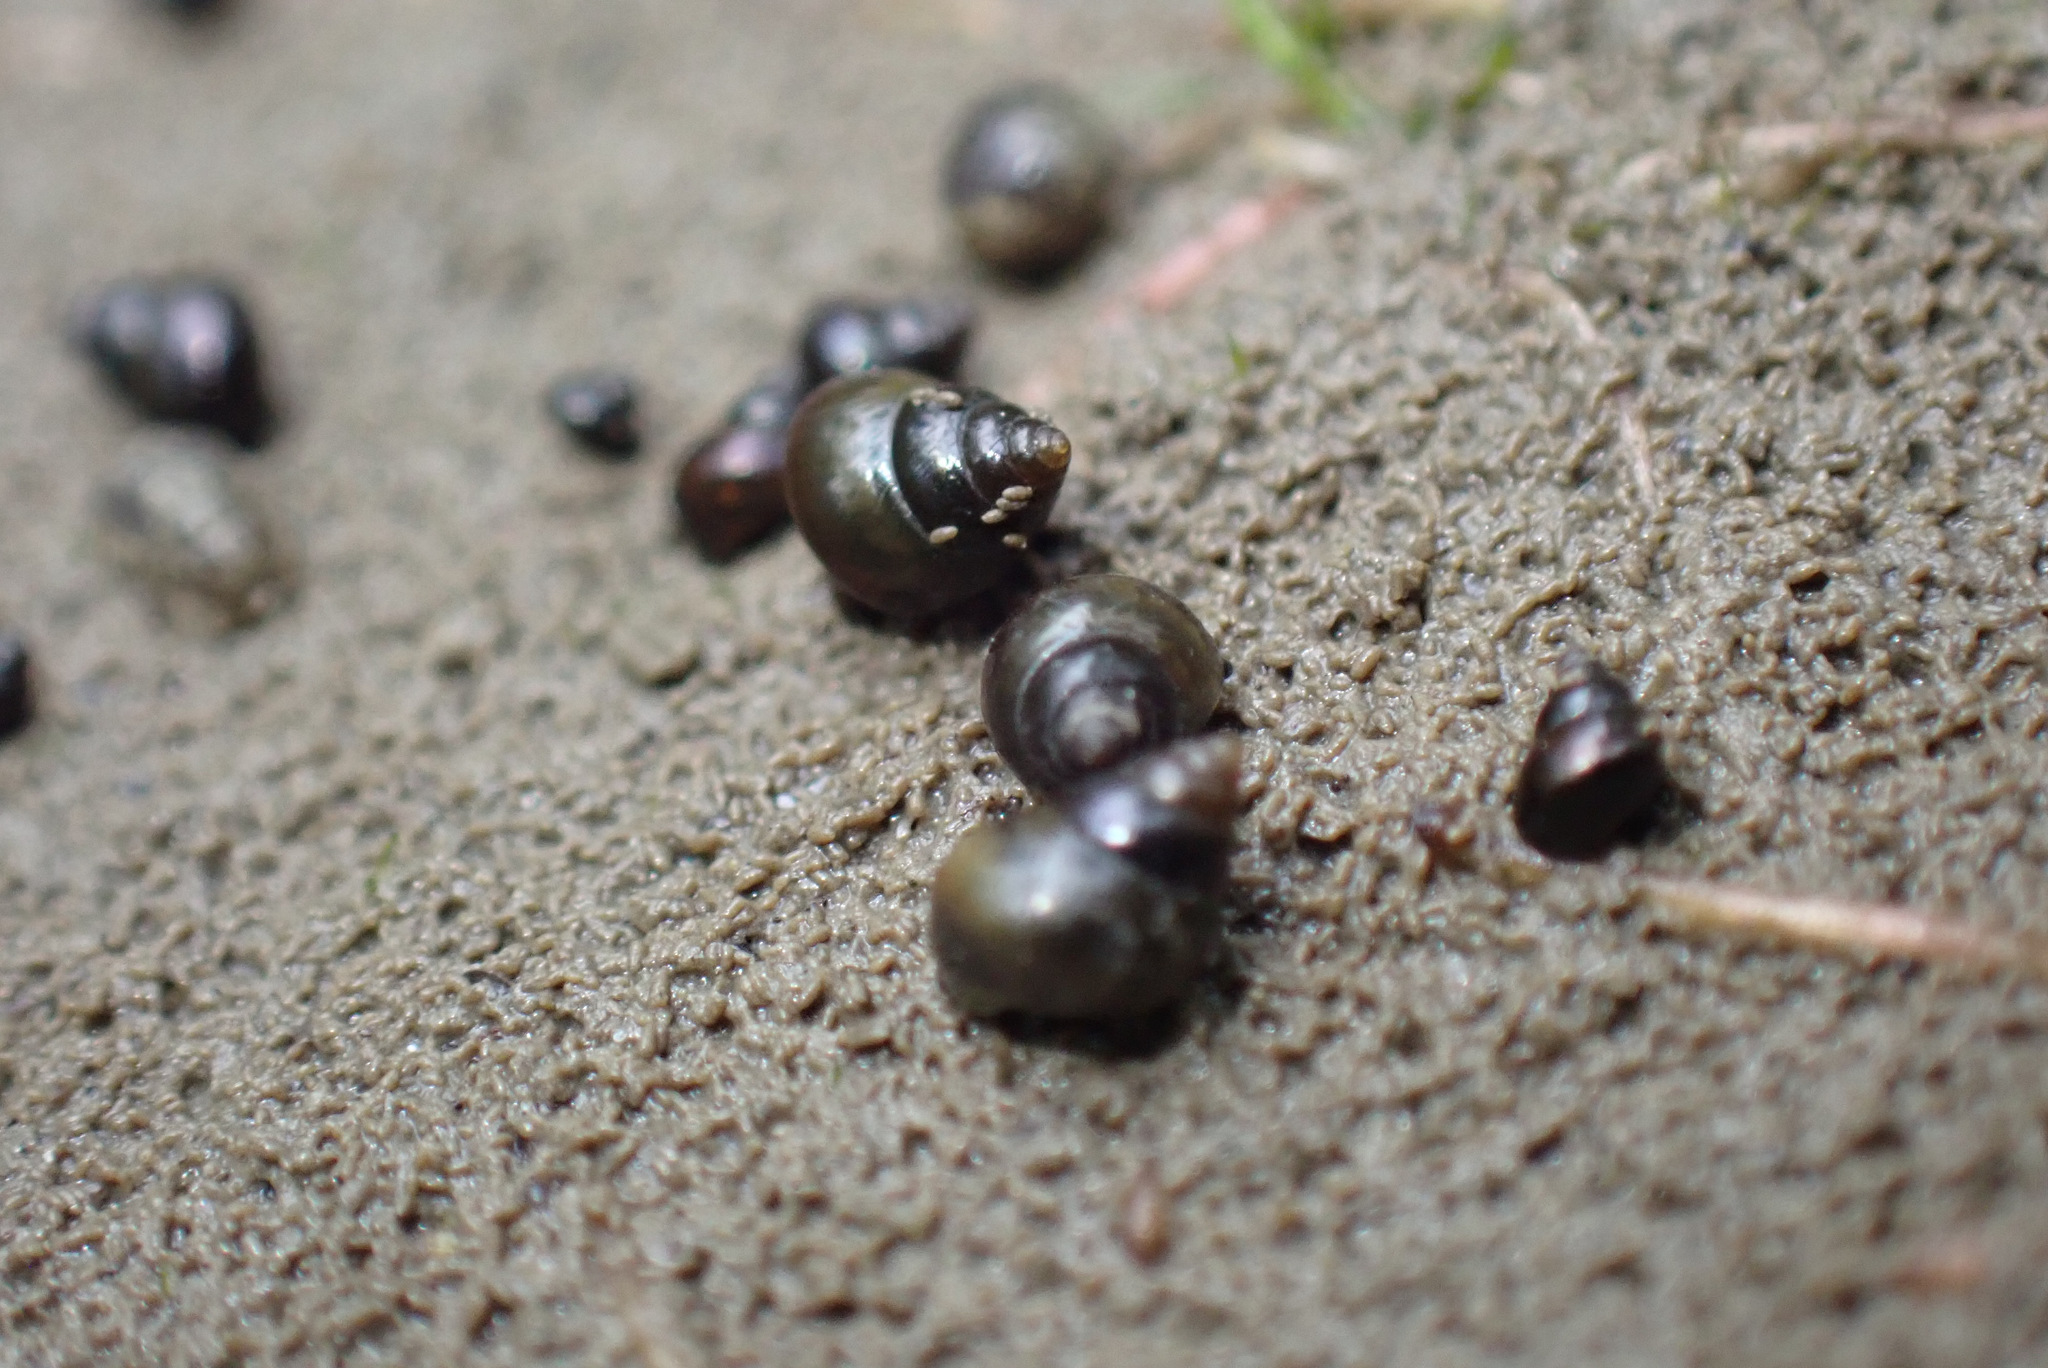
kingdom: Animalia
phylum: Mollusca
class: Gastropoda
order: Littorinimorpha
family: Assimineidae
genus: Assiminea
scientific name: Assiminea grayana
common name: Dun sentinel
